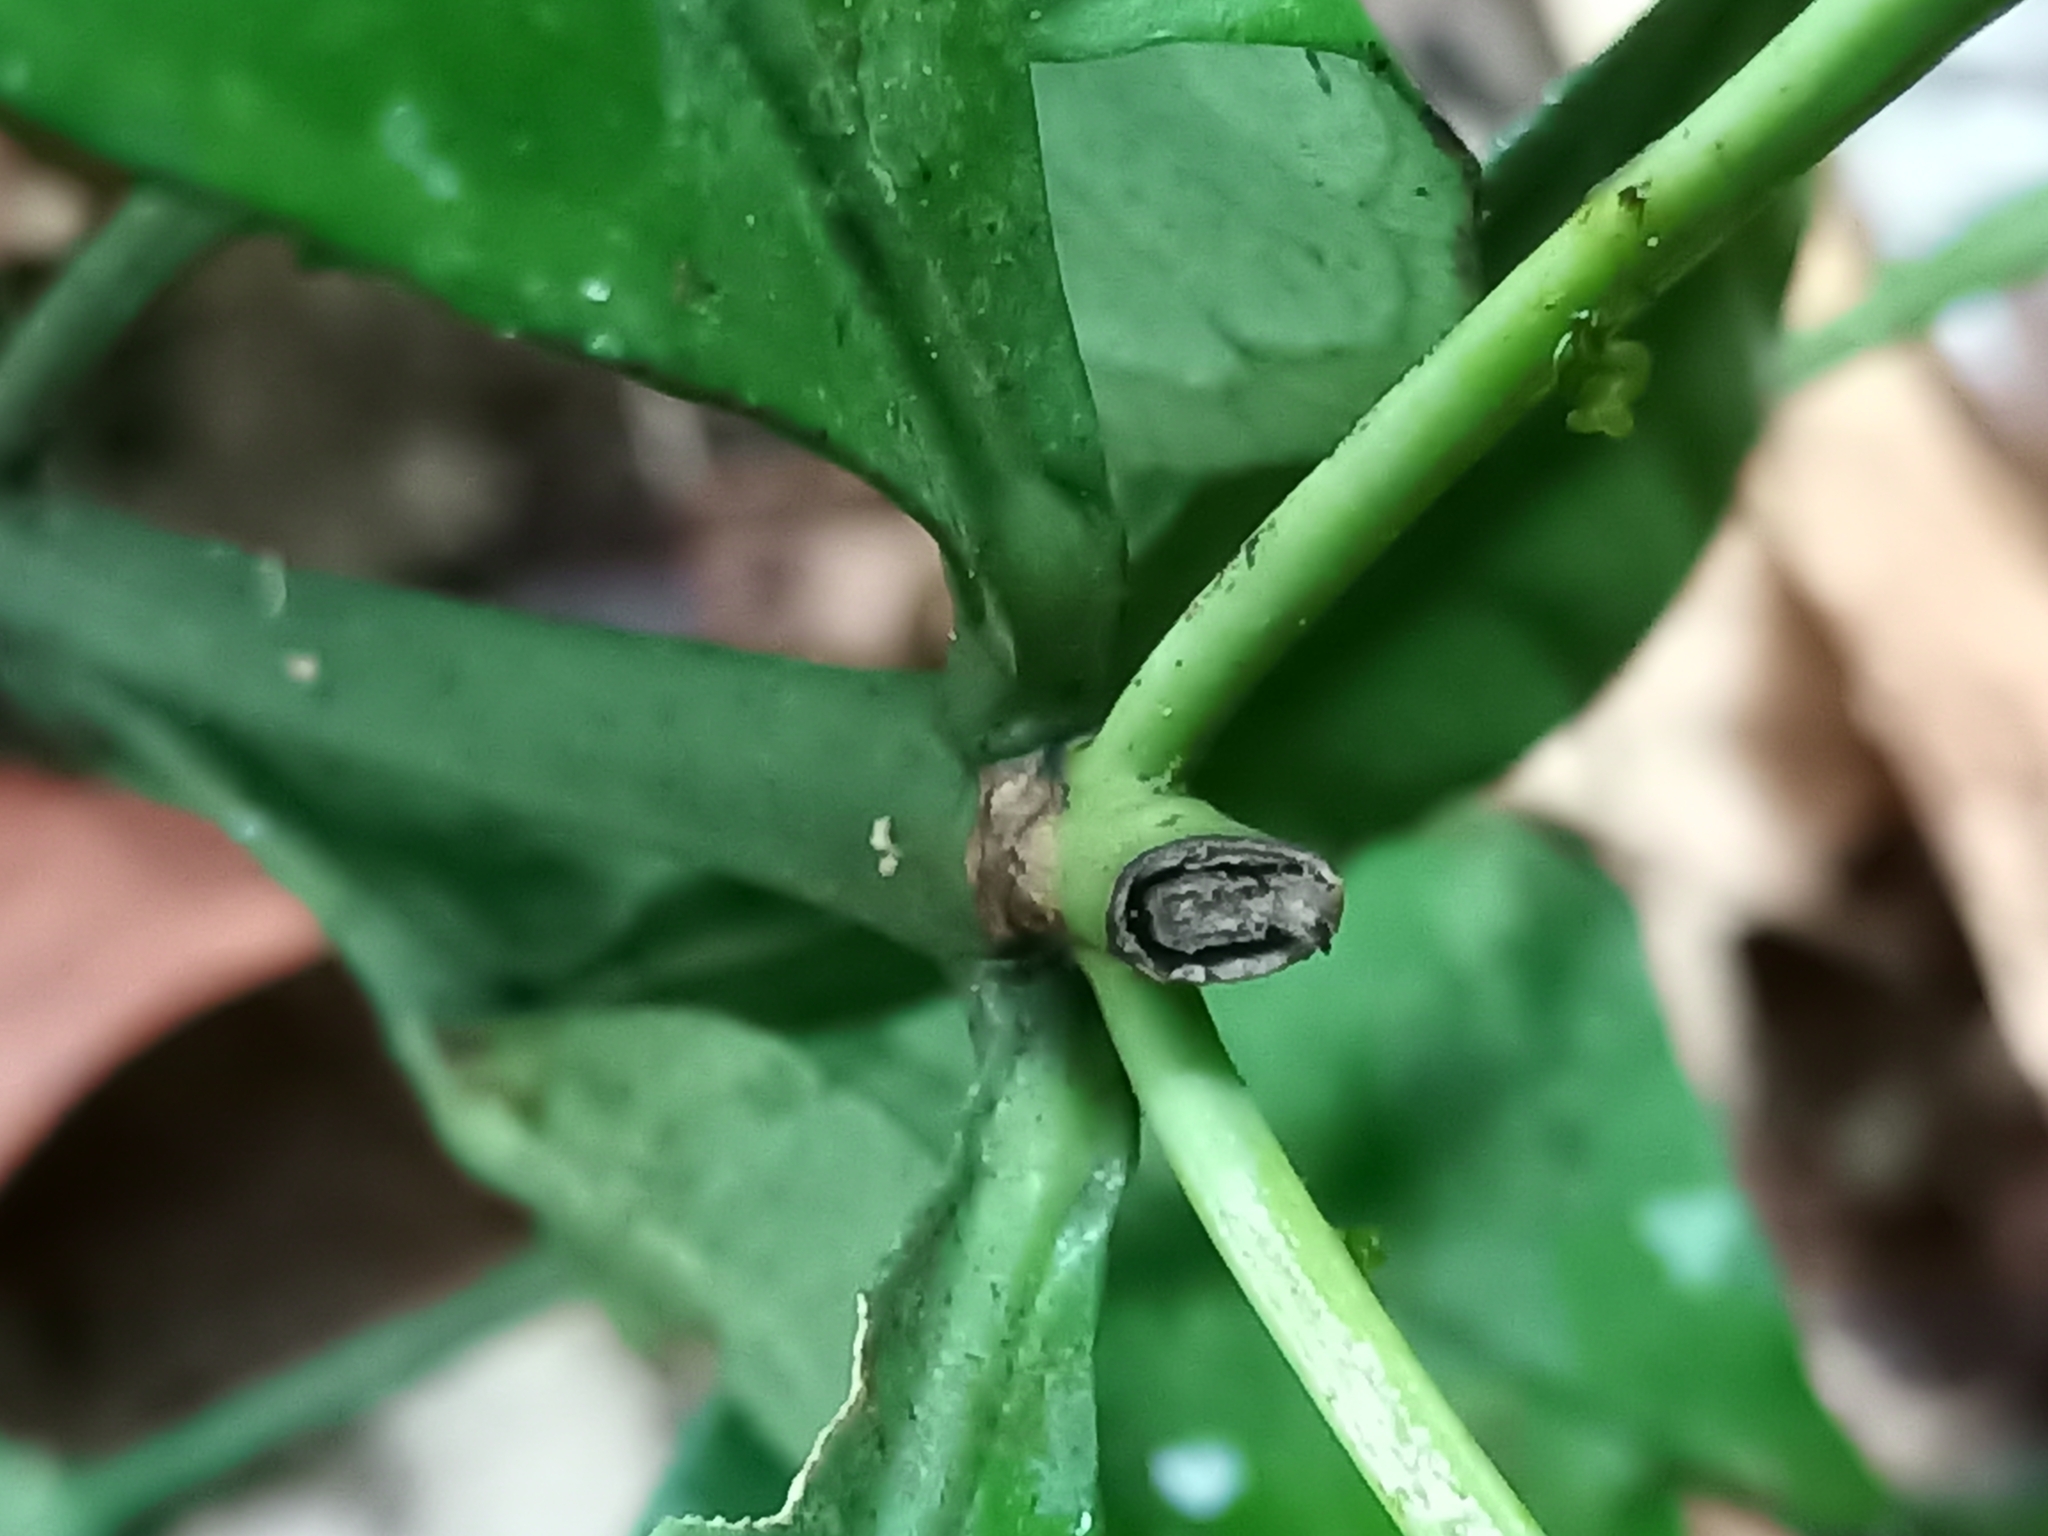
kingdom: Plantae
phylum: Tracheophyta
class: Magnoliopsida
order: Gentianales
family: Rubiaceae
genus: Faramea
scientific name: Faramea guianensis
